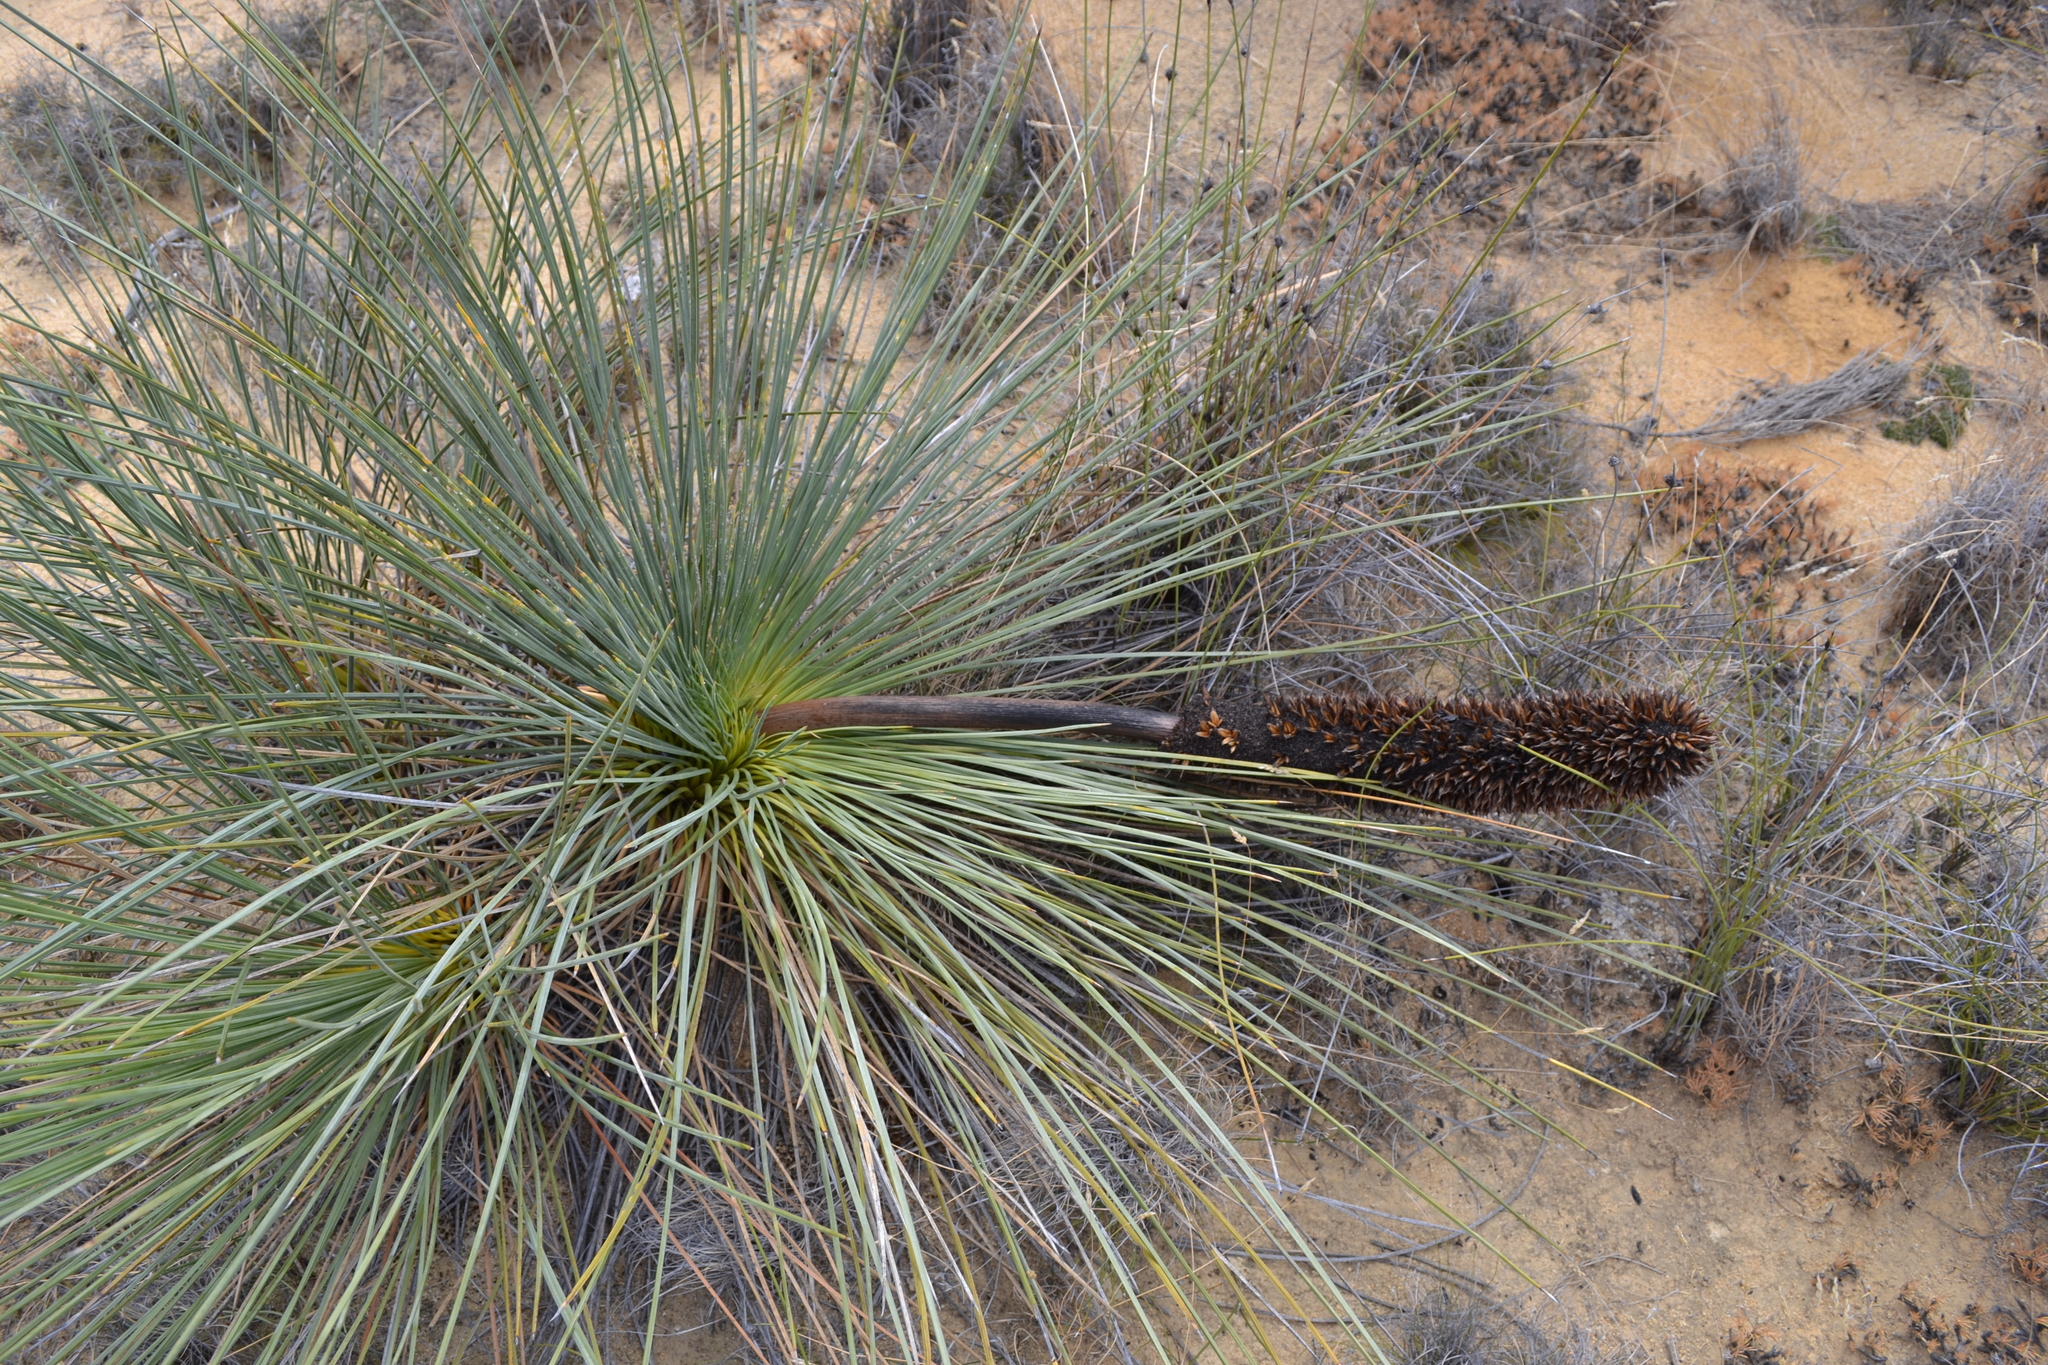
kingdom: Plantae
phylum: Tracheophyta
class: Liliopsida
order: Asparagales
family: Asphodelaceae
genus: Xanthorrhoea
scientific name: Xanthorrhoea nana
